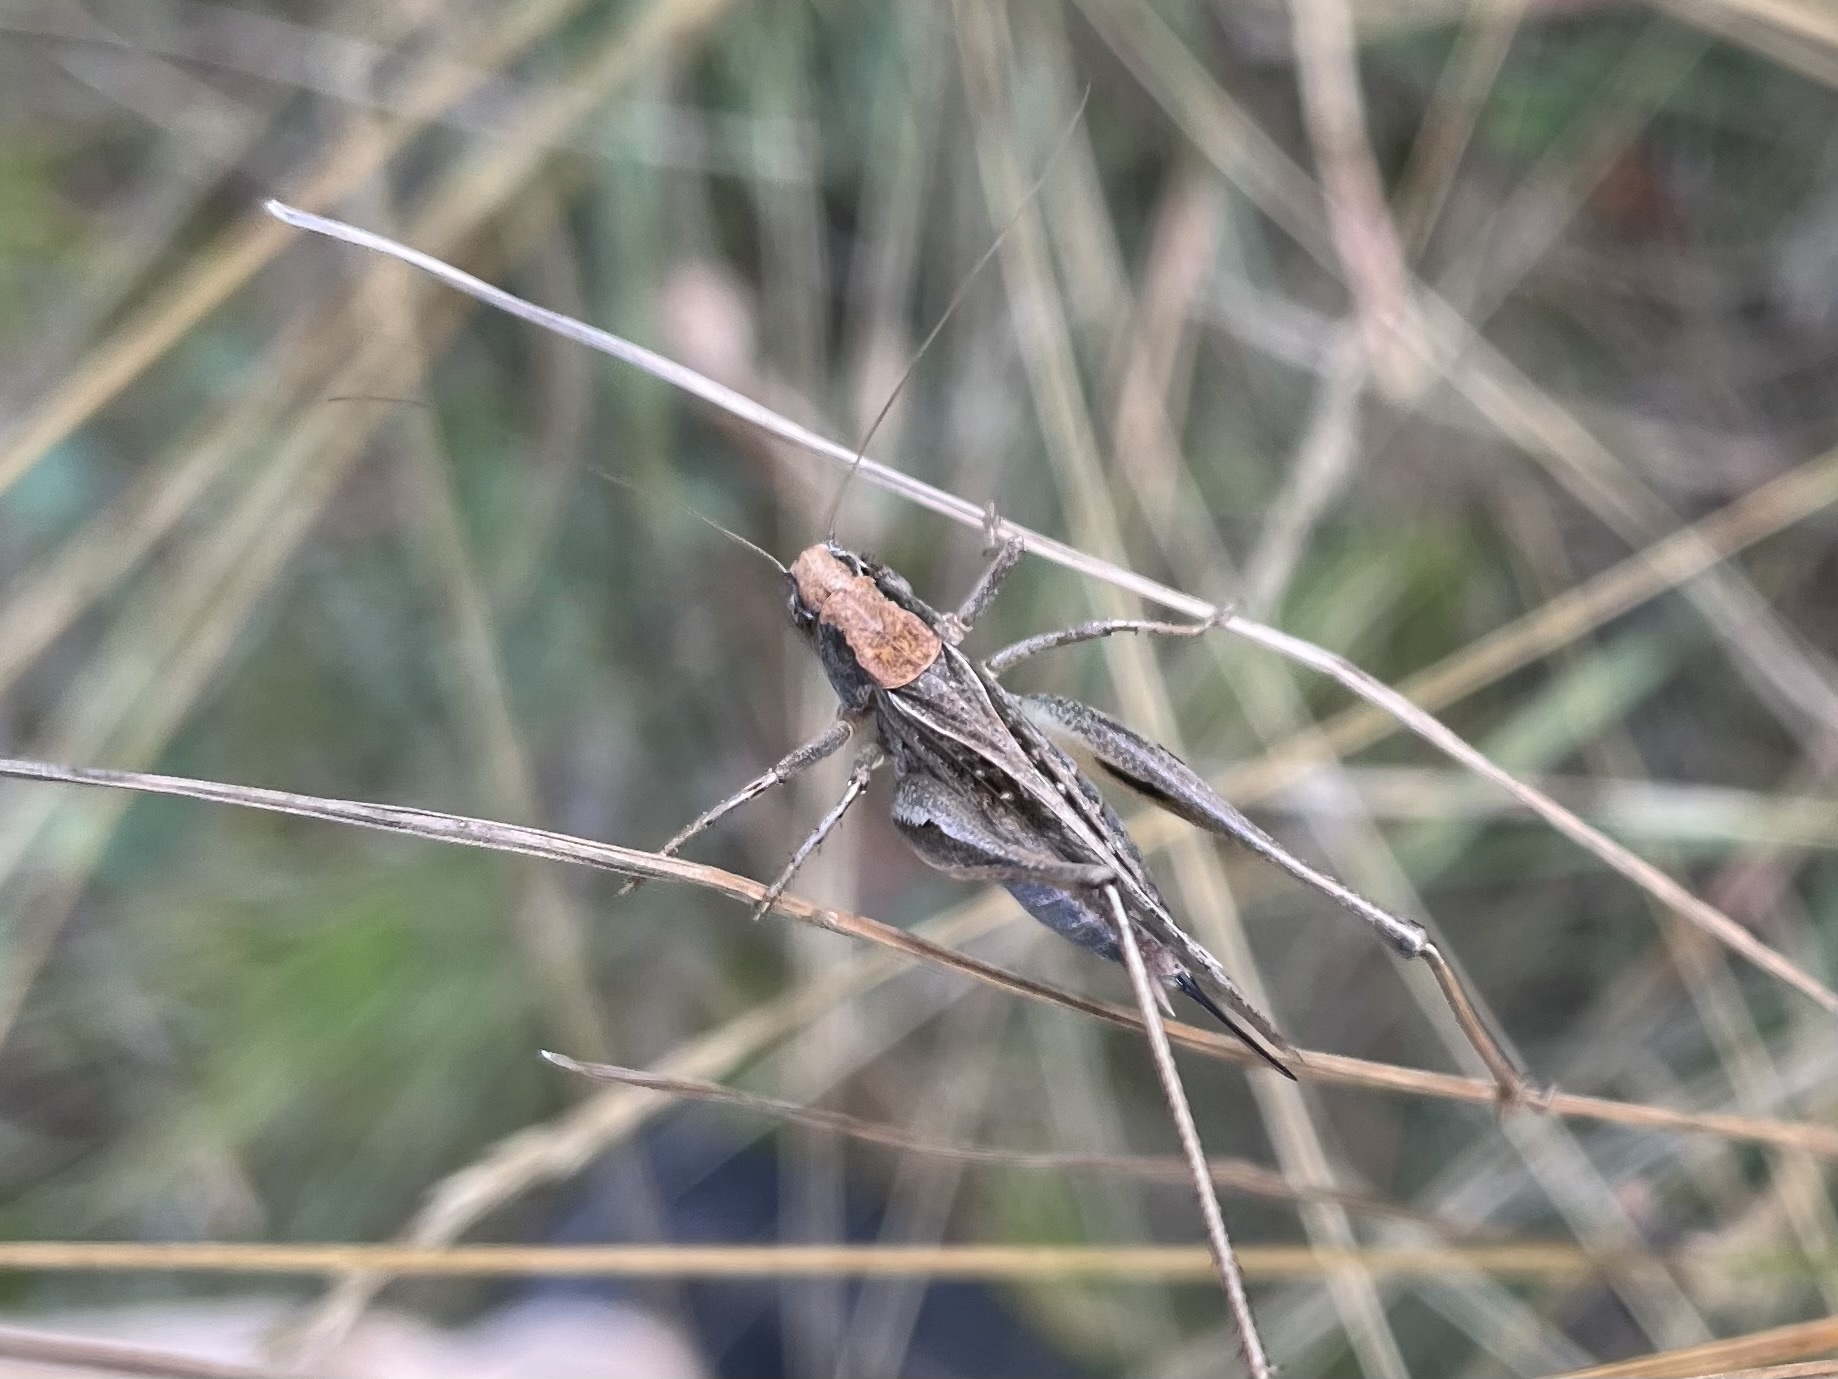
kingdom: Animalia
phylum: Arthropoda
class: Insecta
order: Orthoptera
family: Tettigoniidae
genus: Platycleis
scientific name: Platycleis albopunctata
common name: Grey bush-cricket
